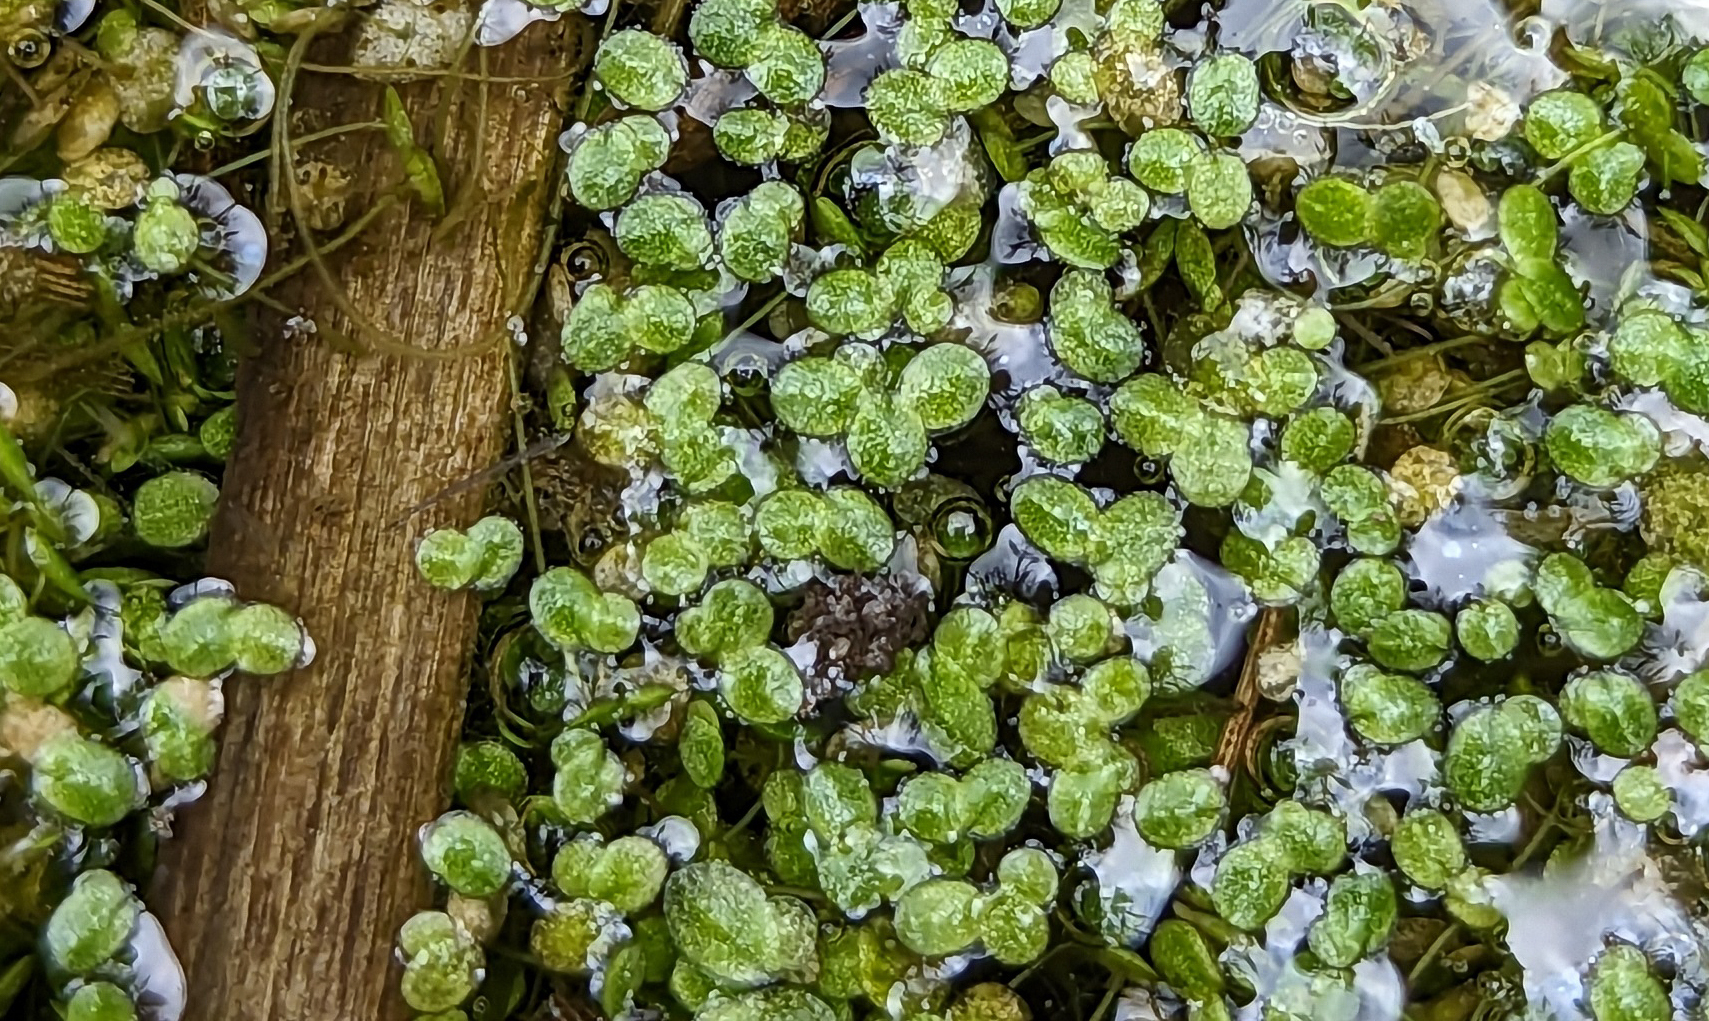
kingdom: Plantae
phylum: Tracheophyta
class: Liliopsida
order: Alismatales
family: Araceae
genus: Lemna
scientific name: Lemna gibba
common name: Fat duckweed
